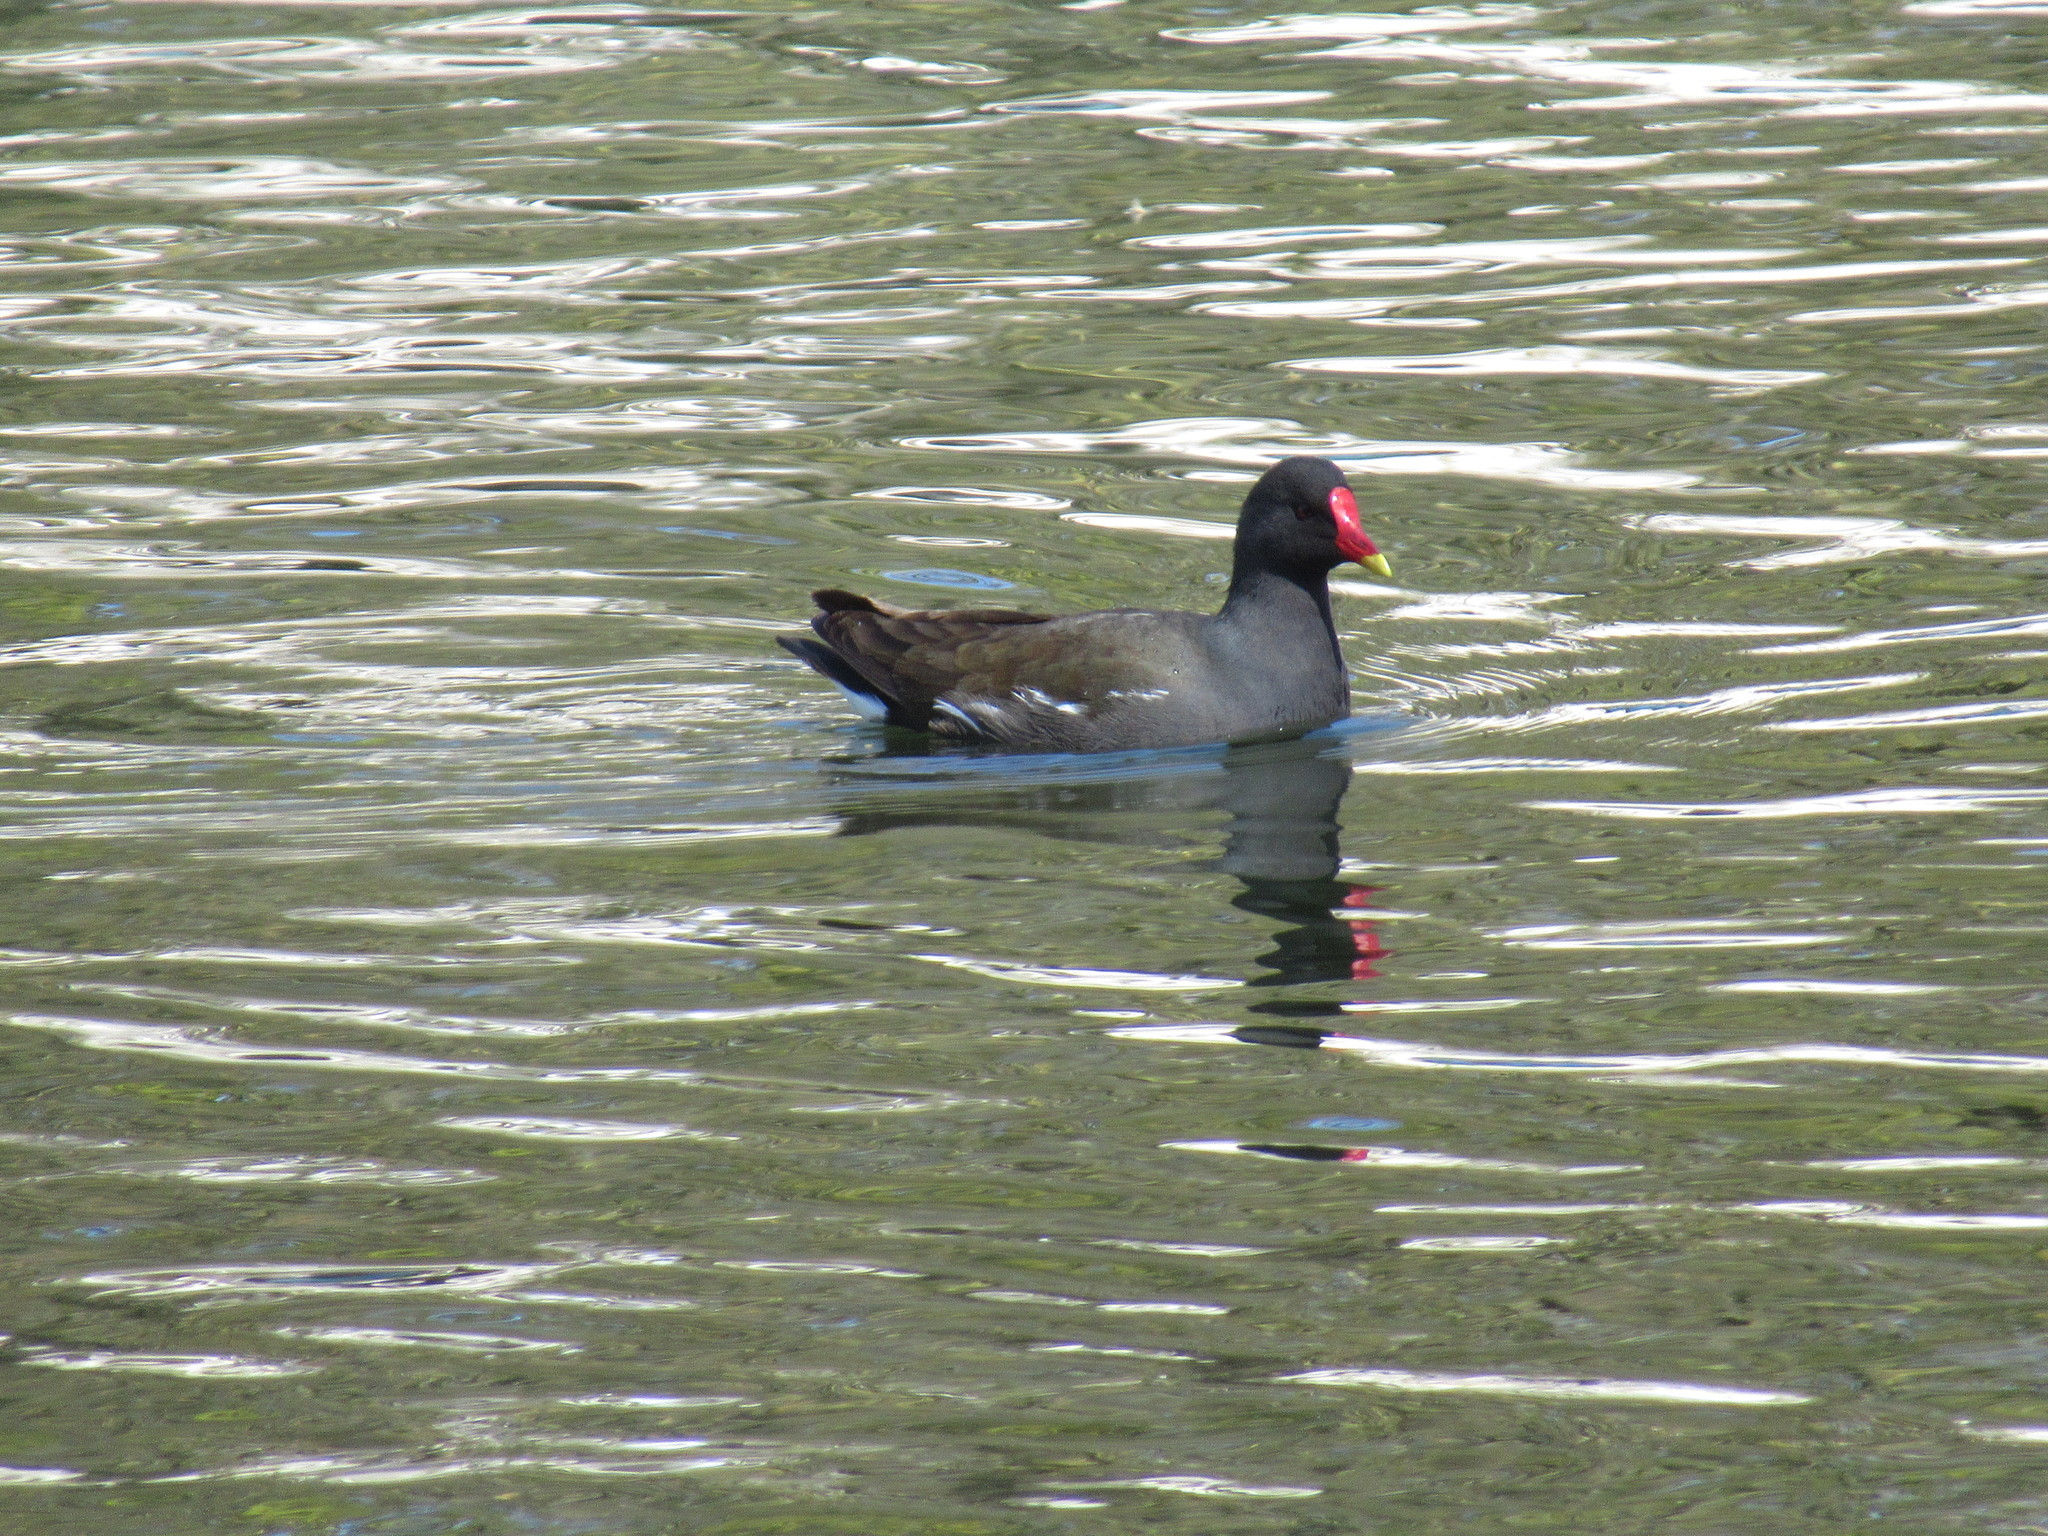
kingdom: Animalia
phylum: Chordata
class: Aves
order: Gruiformes
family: Rallidae
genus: Gallinula
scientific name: Gallinula chloropus
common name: Common moorhen
